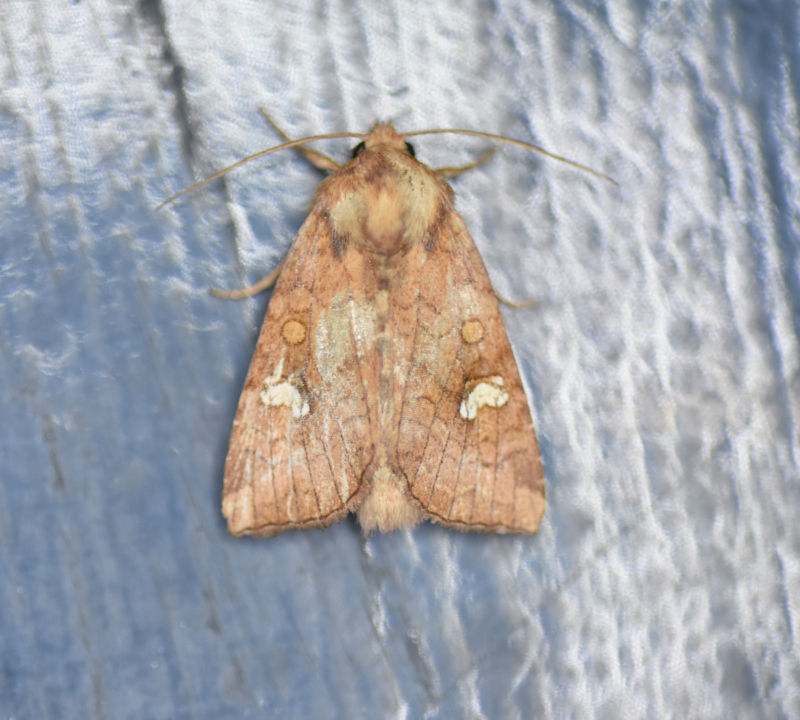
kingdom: Animalia
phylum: Arthropoda
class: Insecta
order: Lepidoptera
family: Noctuidae
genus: Amphipoea
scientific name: Amphipoea americana
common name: American ear moth
